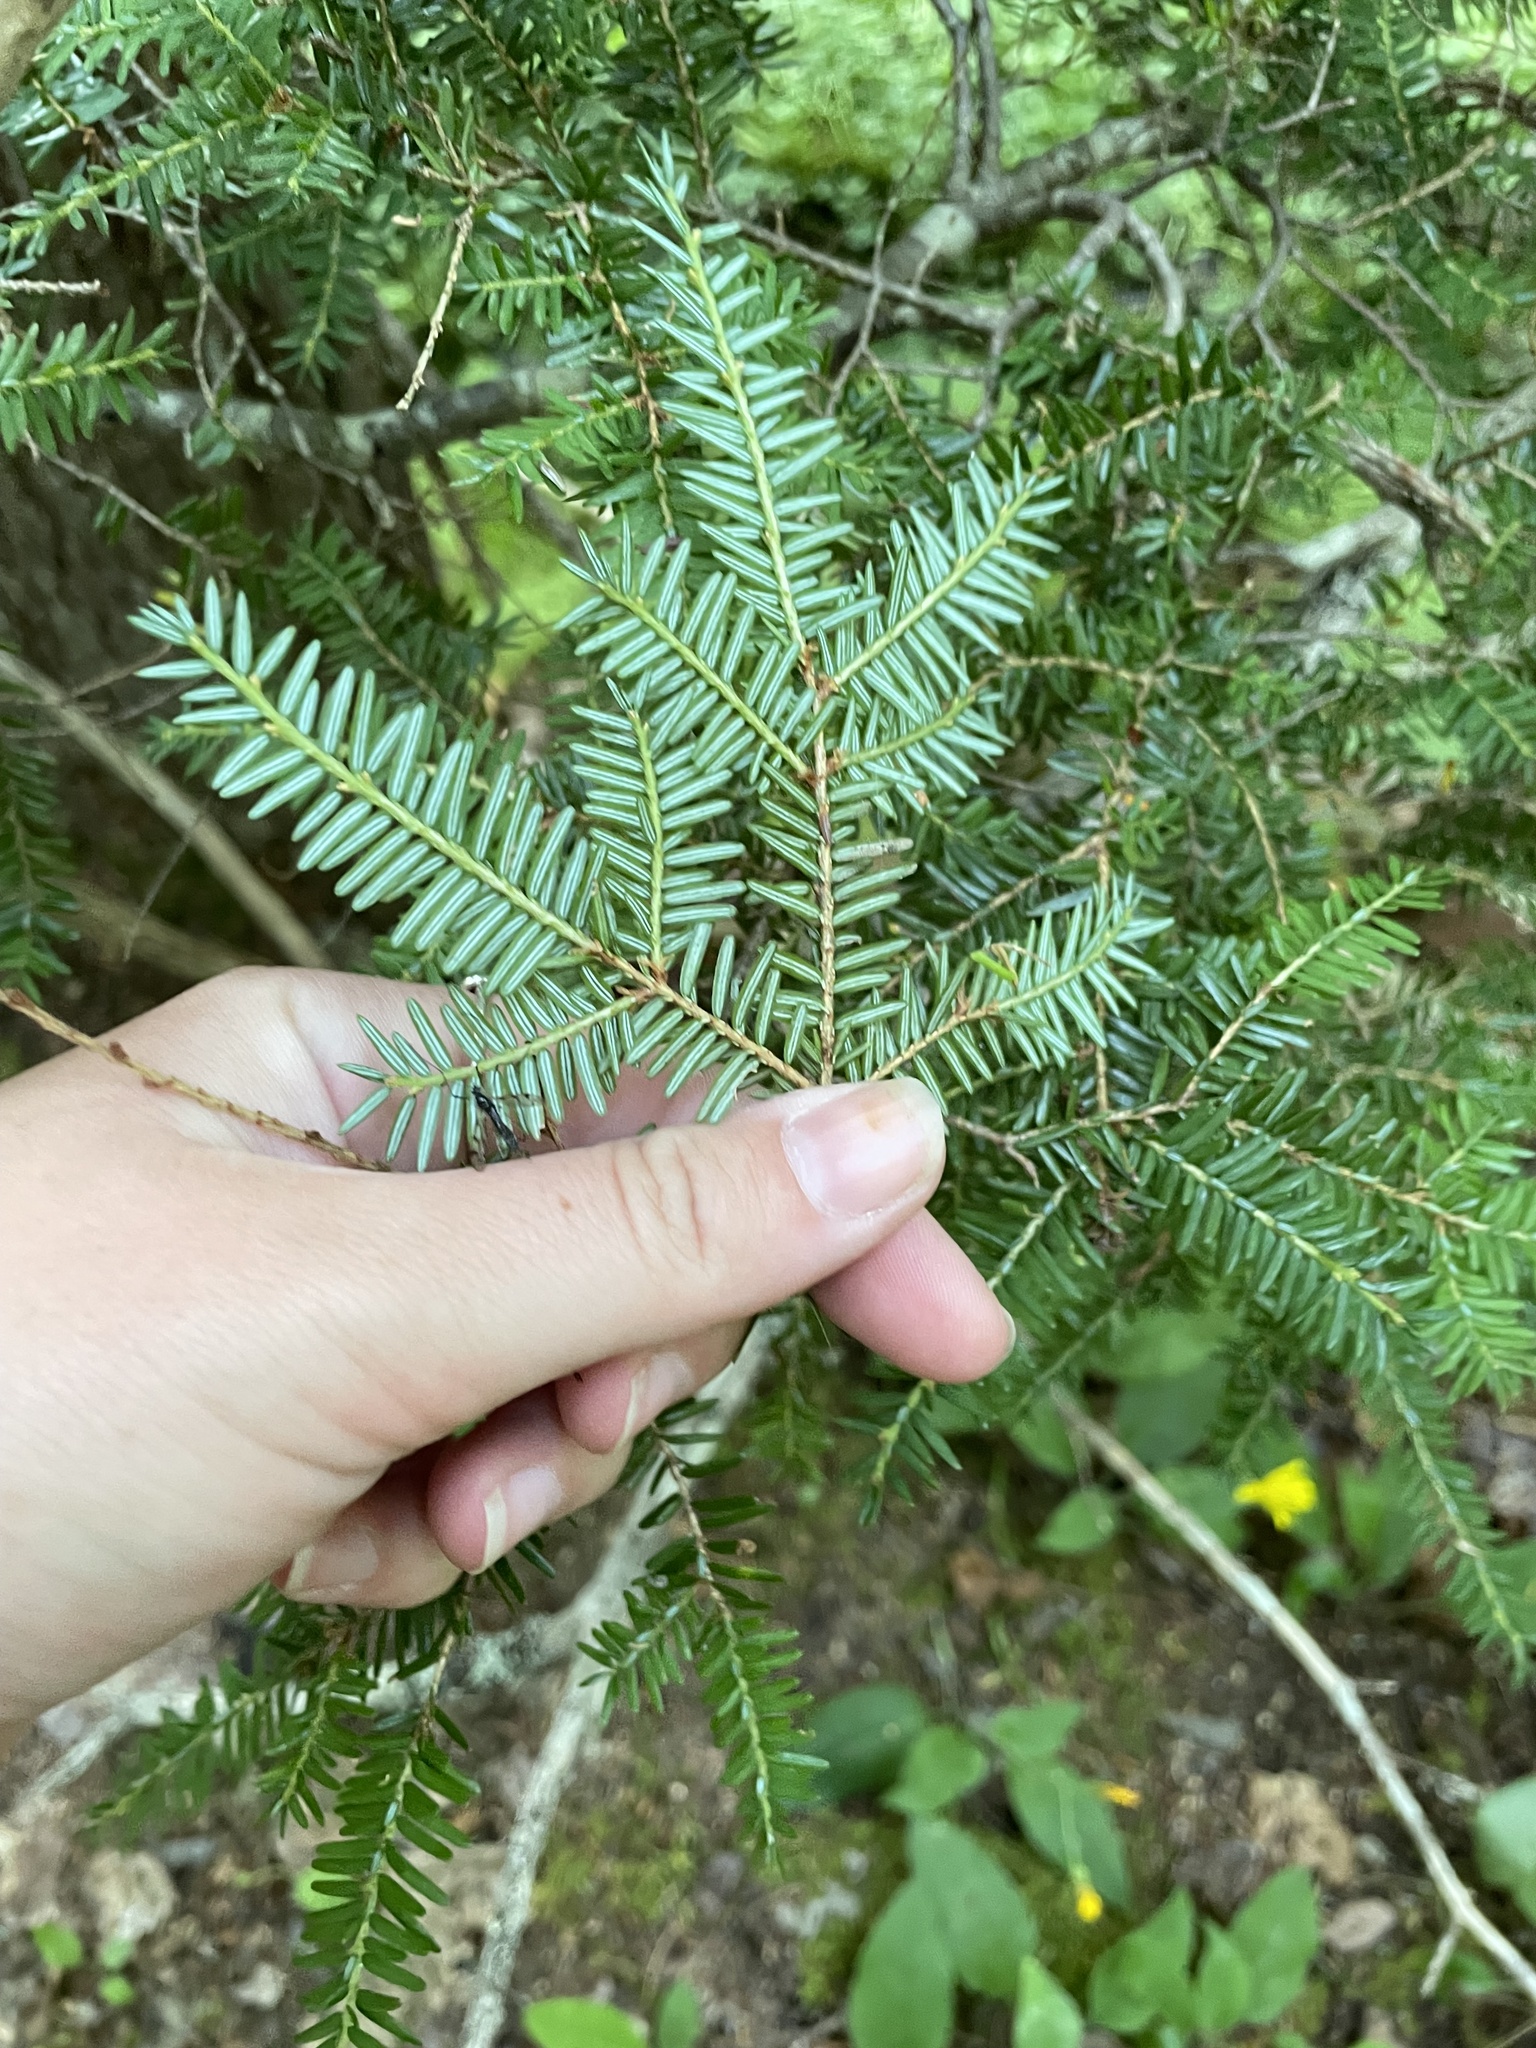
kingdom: Plantae
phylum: Tracheophyta
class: Pinopsida
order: Pinales
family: Pinaceae
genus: Tsuga
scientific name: Tsuga canadensis
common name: Eastern hemlock
